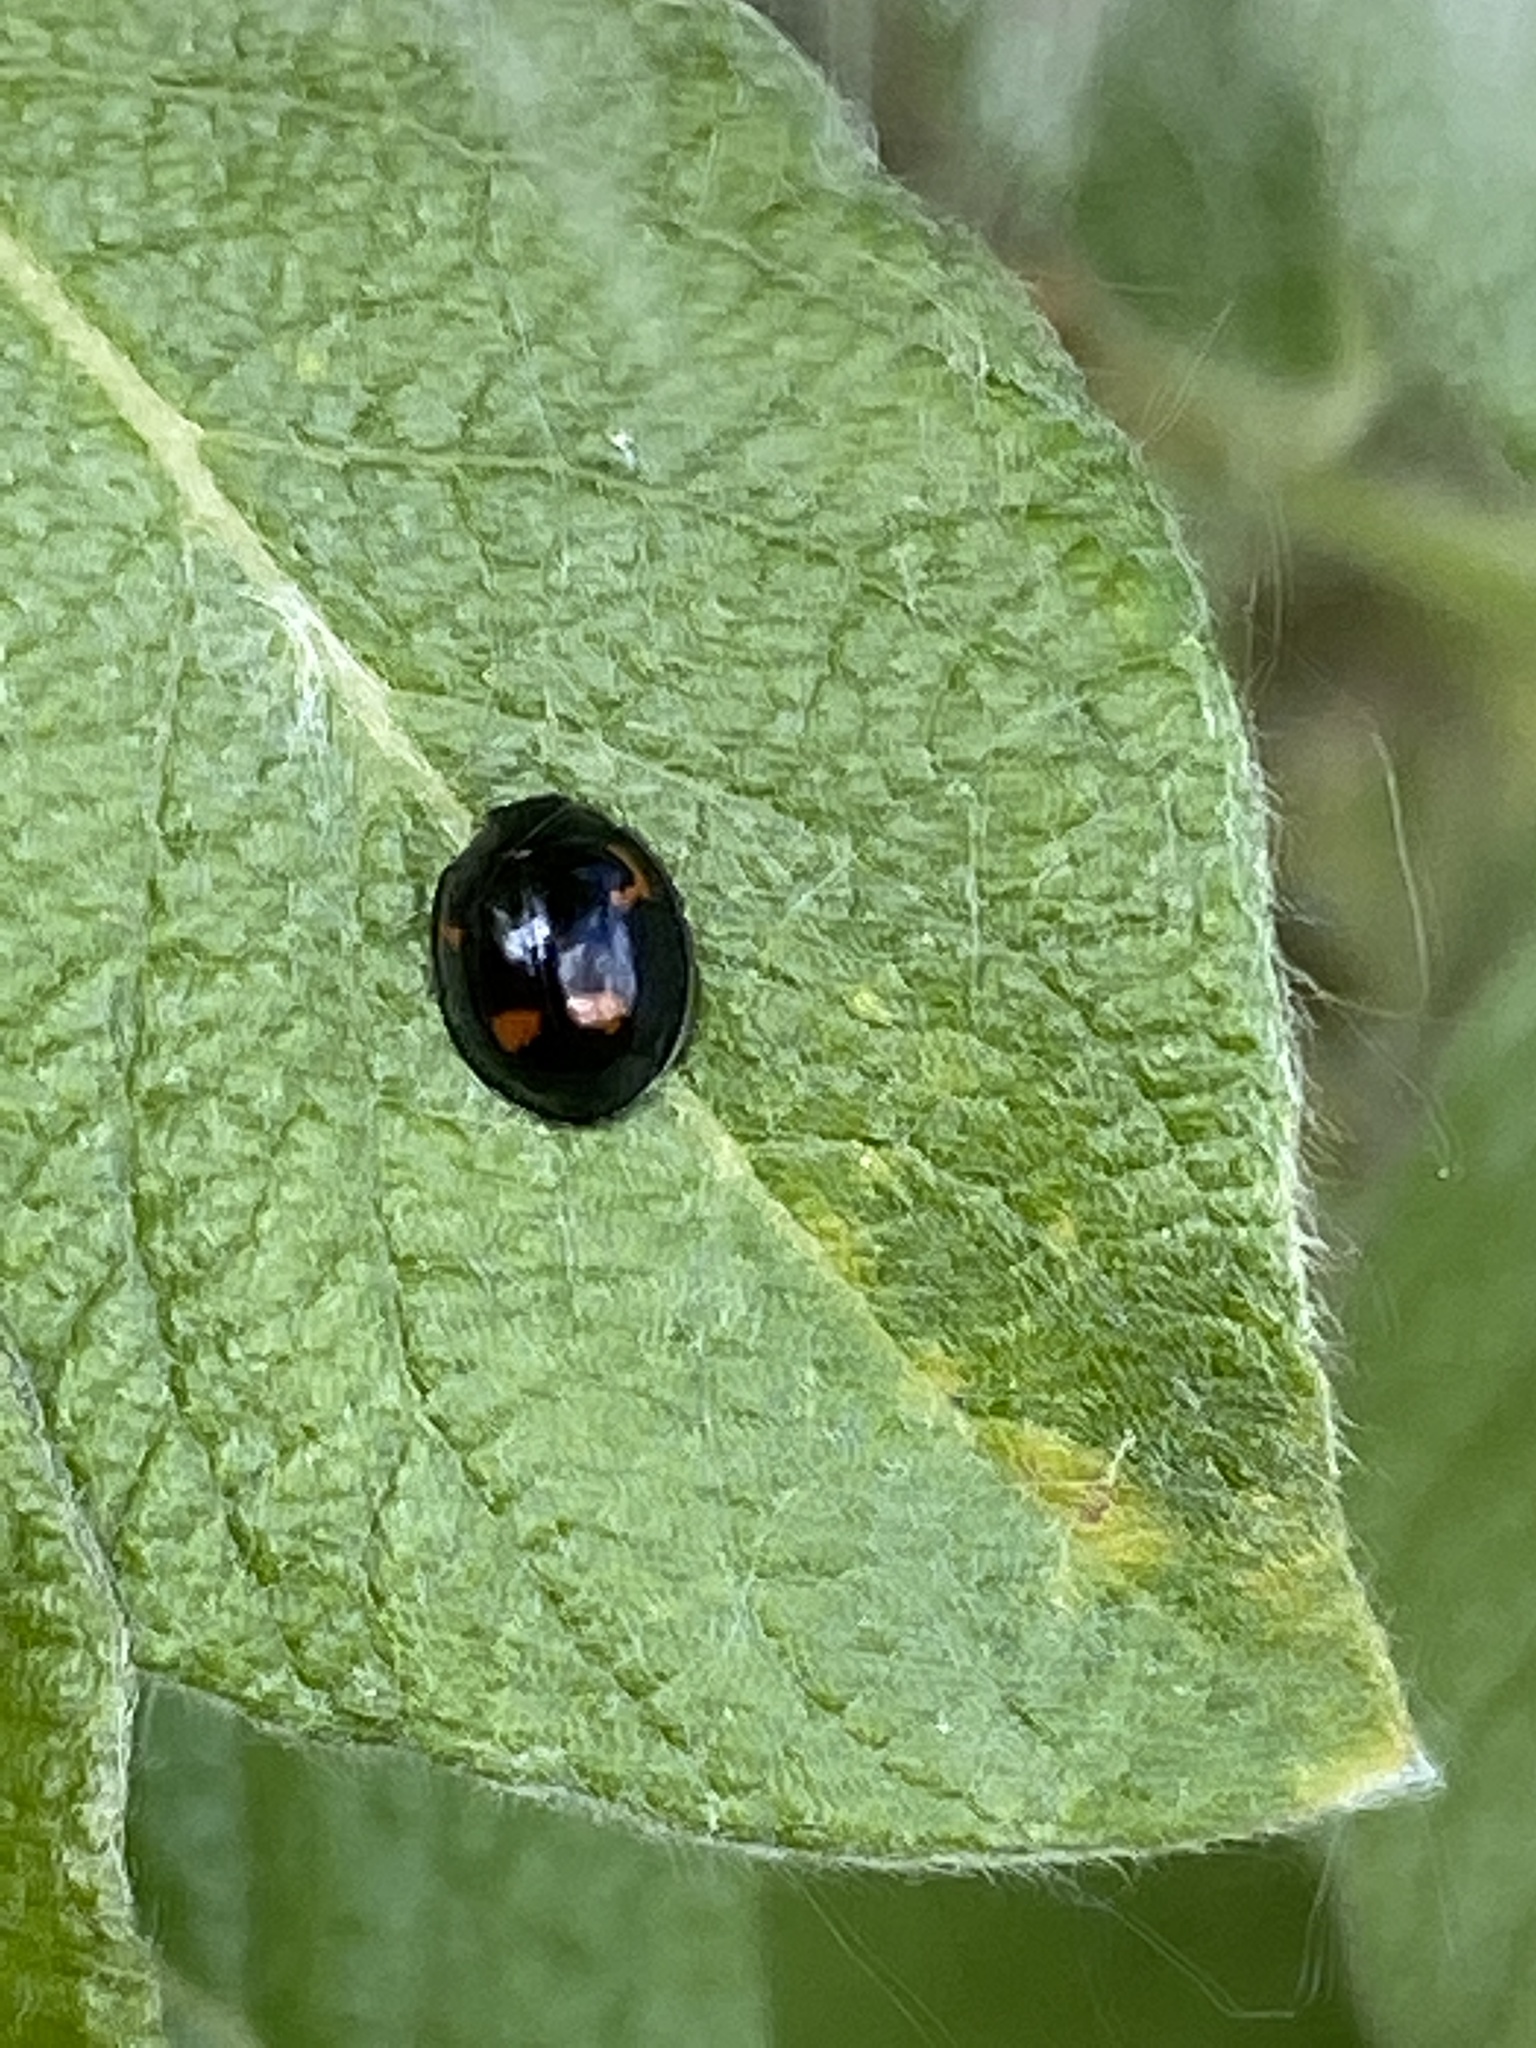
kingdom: Animalia
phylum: Arthropoda
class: Insecta
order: Coleoptera
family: Coccinellidae
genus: Brumus
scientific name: Brumus quadripustulatus
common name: Ladybird beetle
